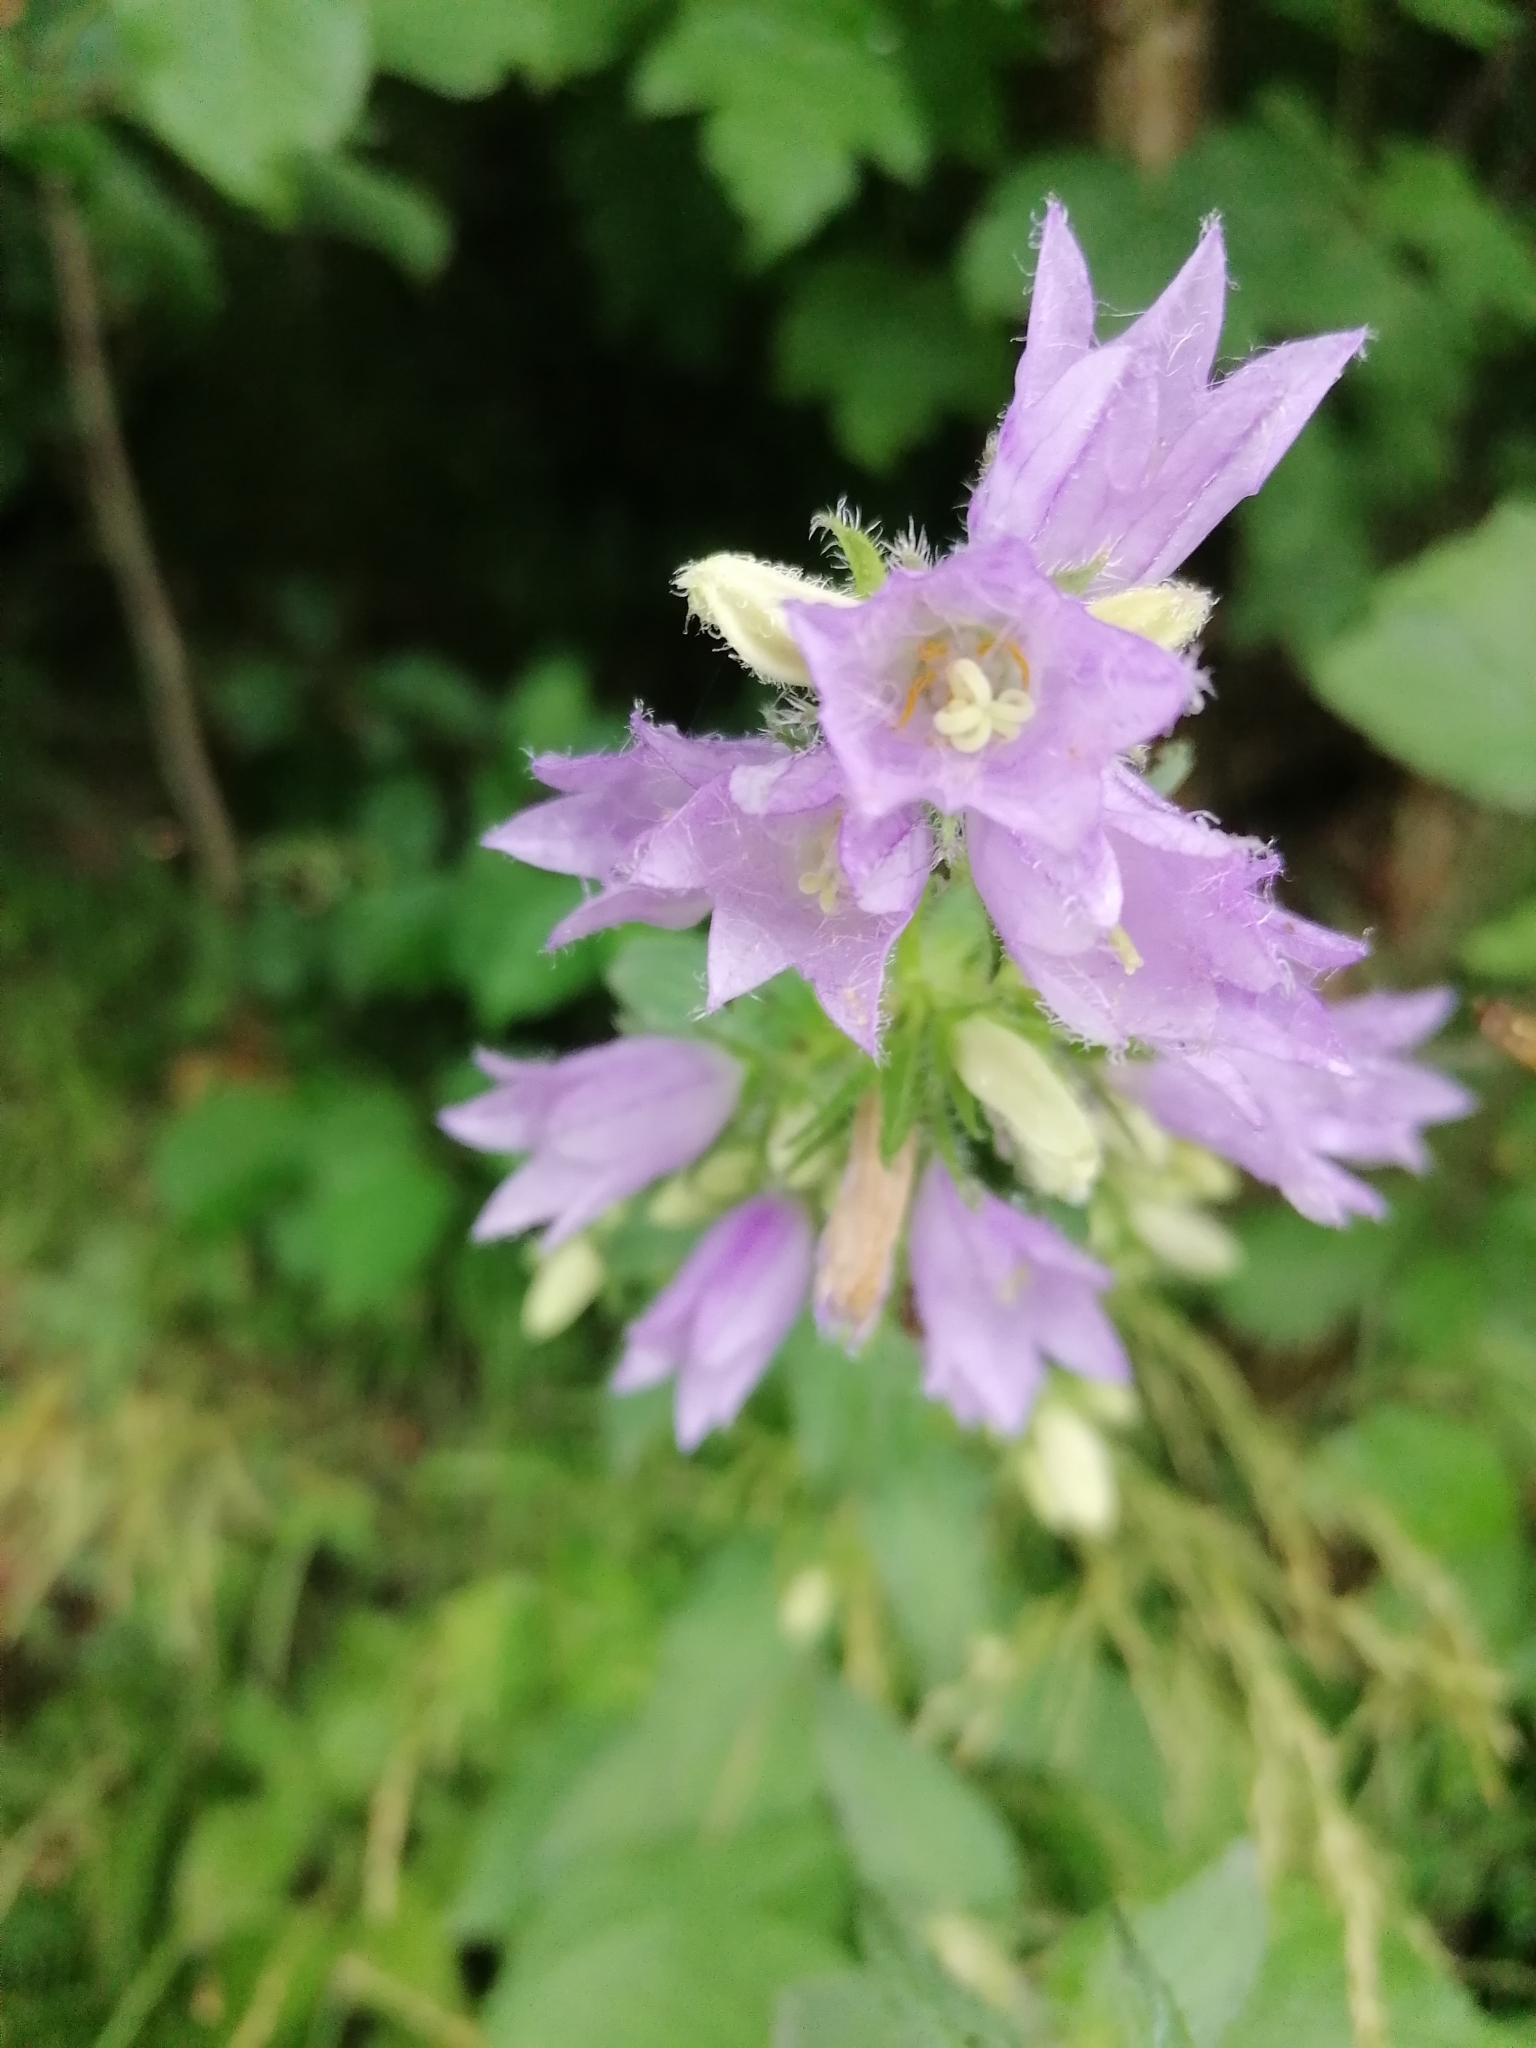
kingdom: Plantae
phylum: Tracheophyta
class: Magnoliopsida
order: Asterales
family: Campanulaceae
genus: Campanula
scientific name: Campanula trachelium
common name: Nettle-leaved bellflower
